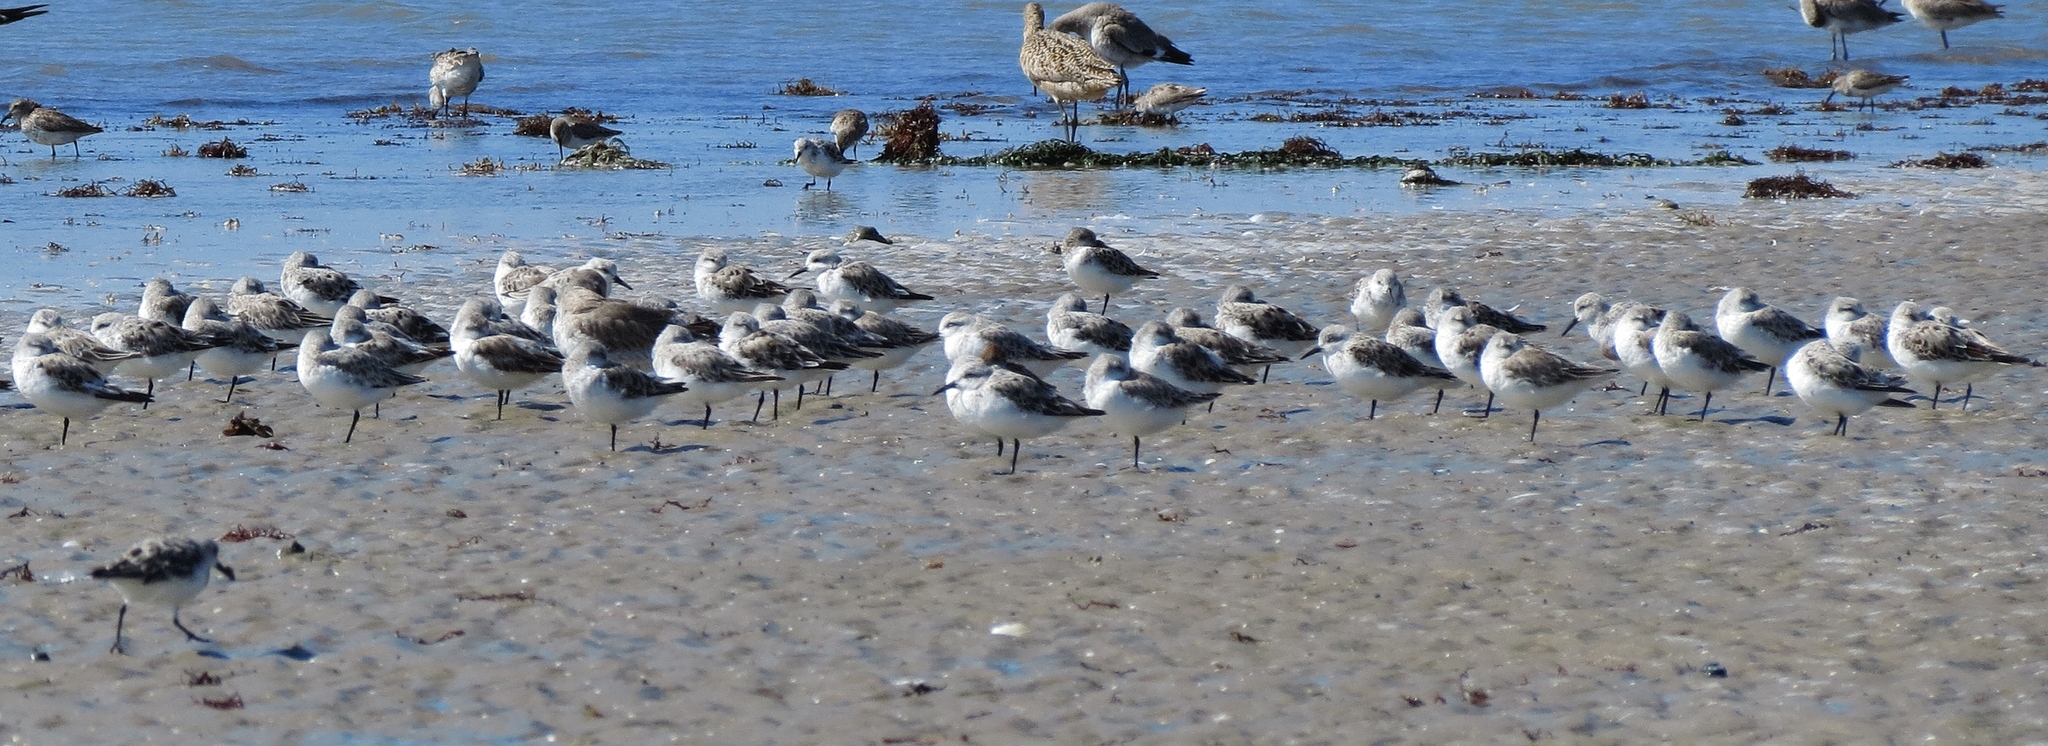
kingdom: Animalia
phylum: Chordata
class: Aves
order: Charadriiformes
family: Scolopacidae
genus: Calidris
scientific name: Calidris alba
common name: Sanderling
